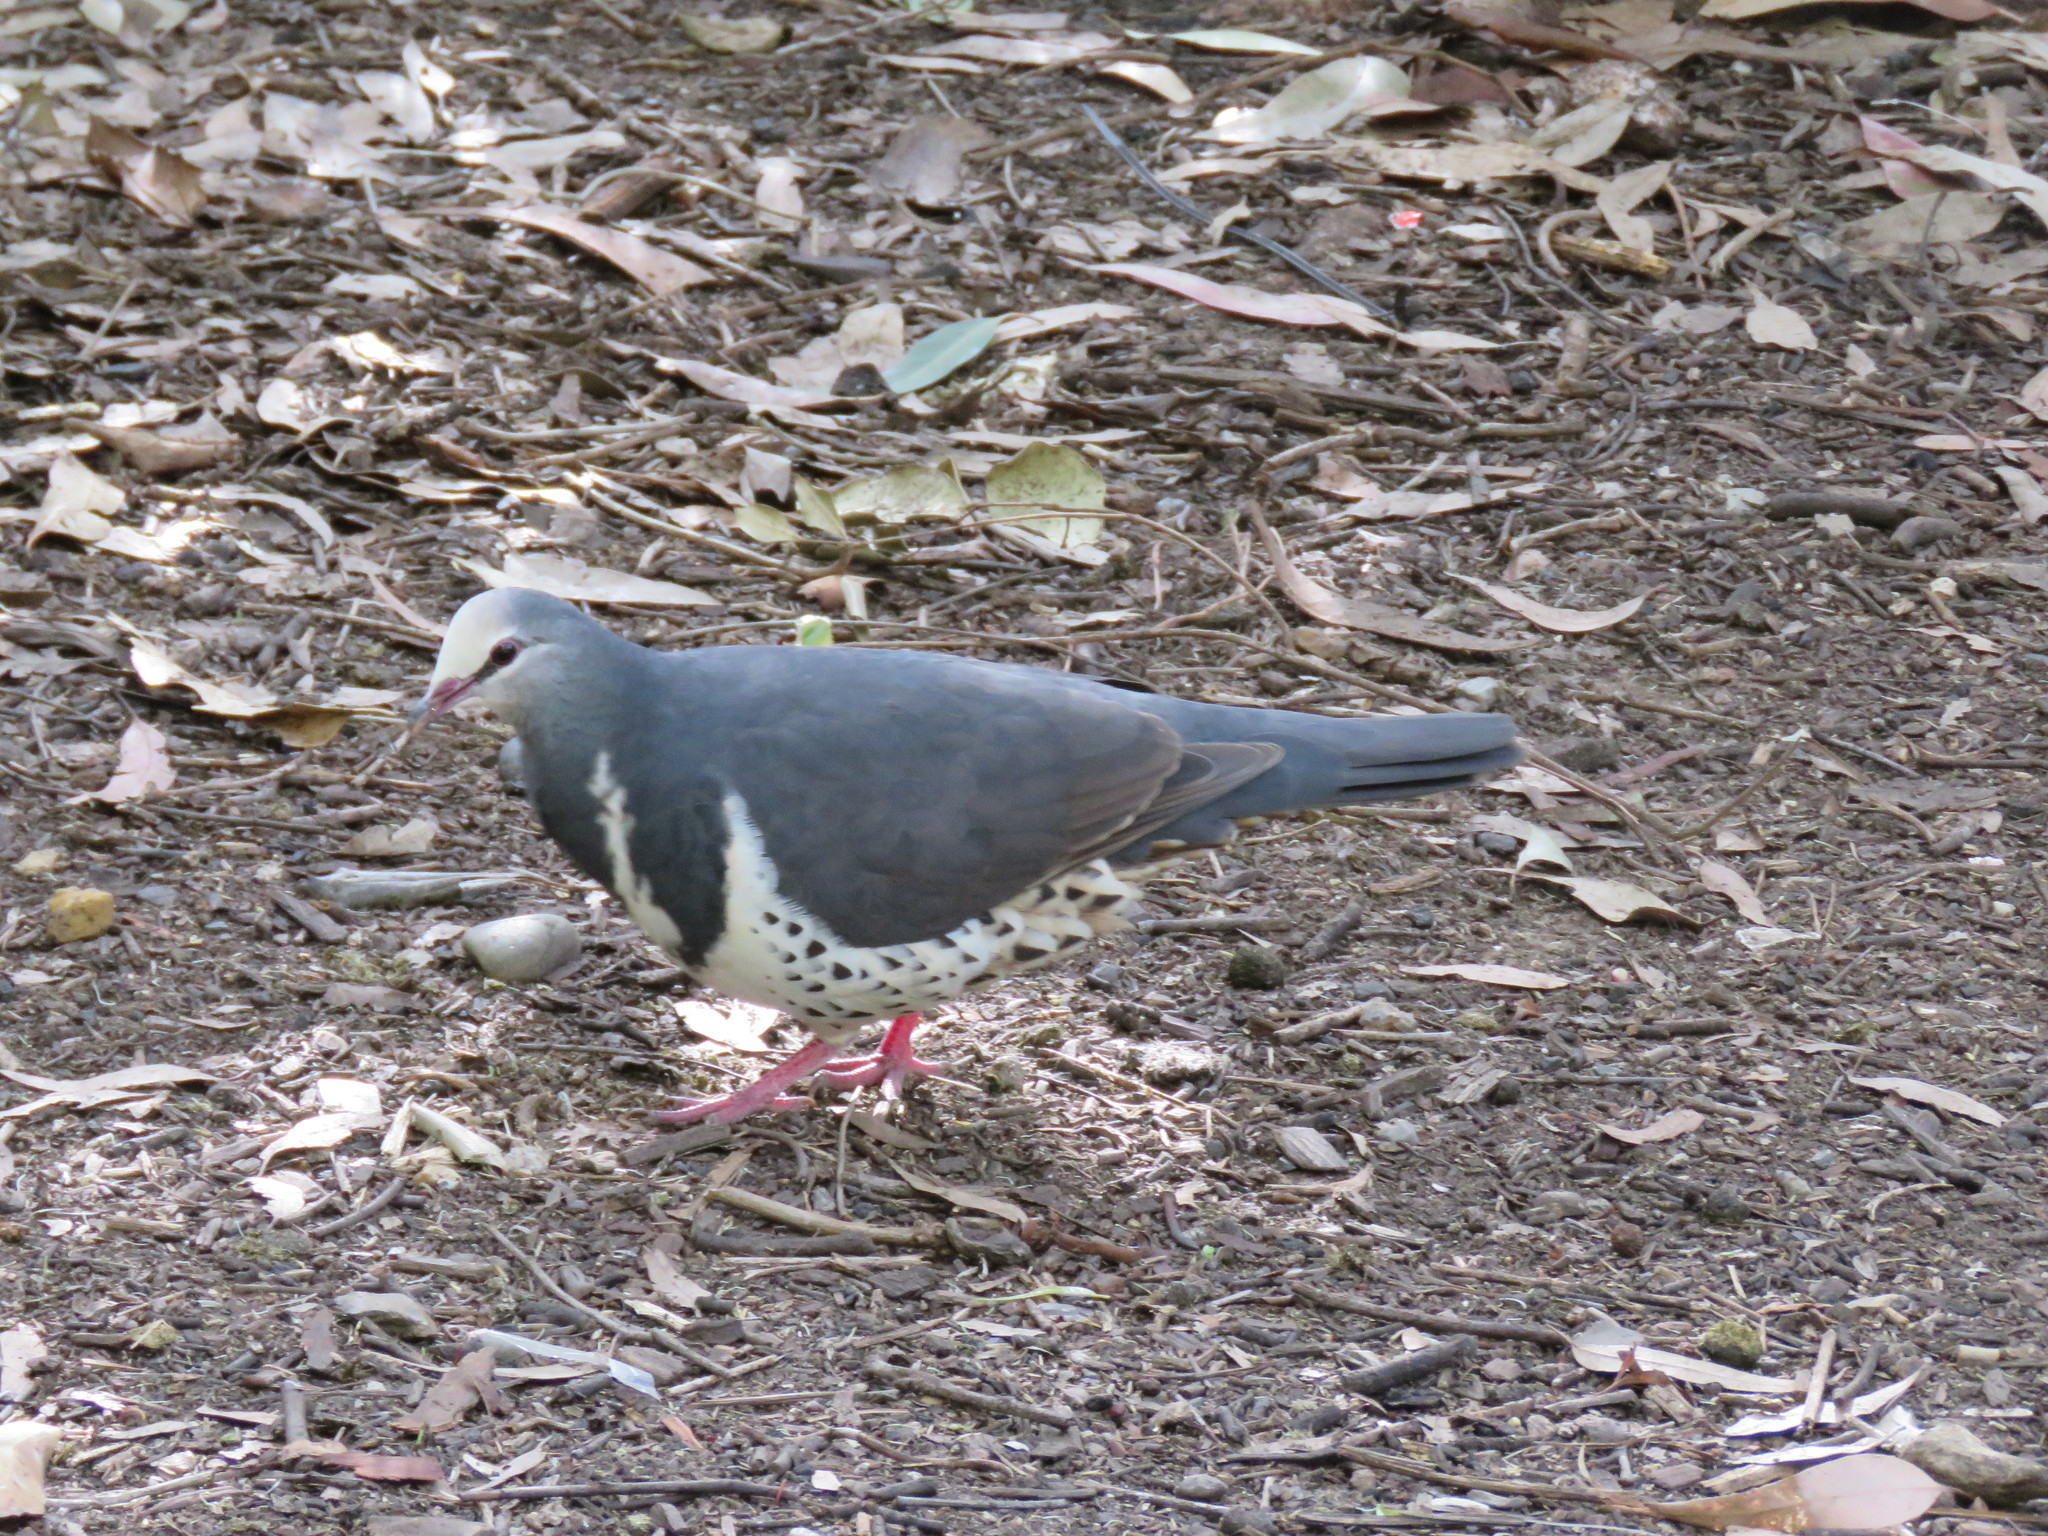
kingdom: Animalia
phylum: Chordata
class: Aves
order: Columbiformes
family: Columbidae
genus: Leucosarcia
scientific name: Leucosarcia melanoleuca
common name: Wonga pigeon
